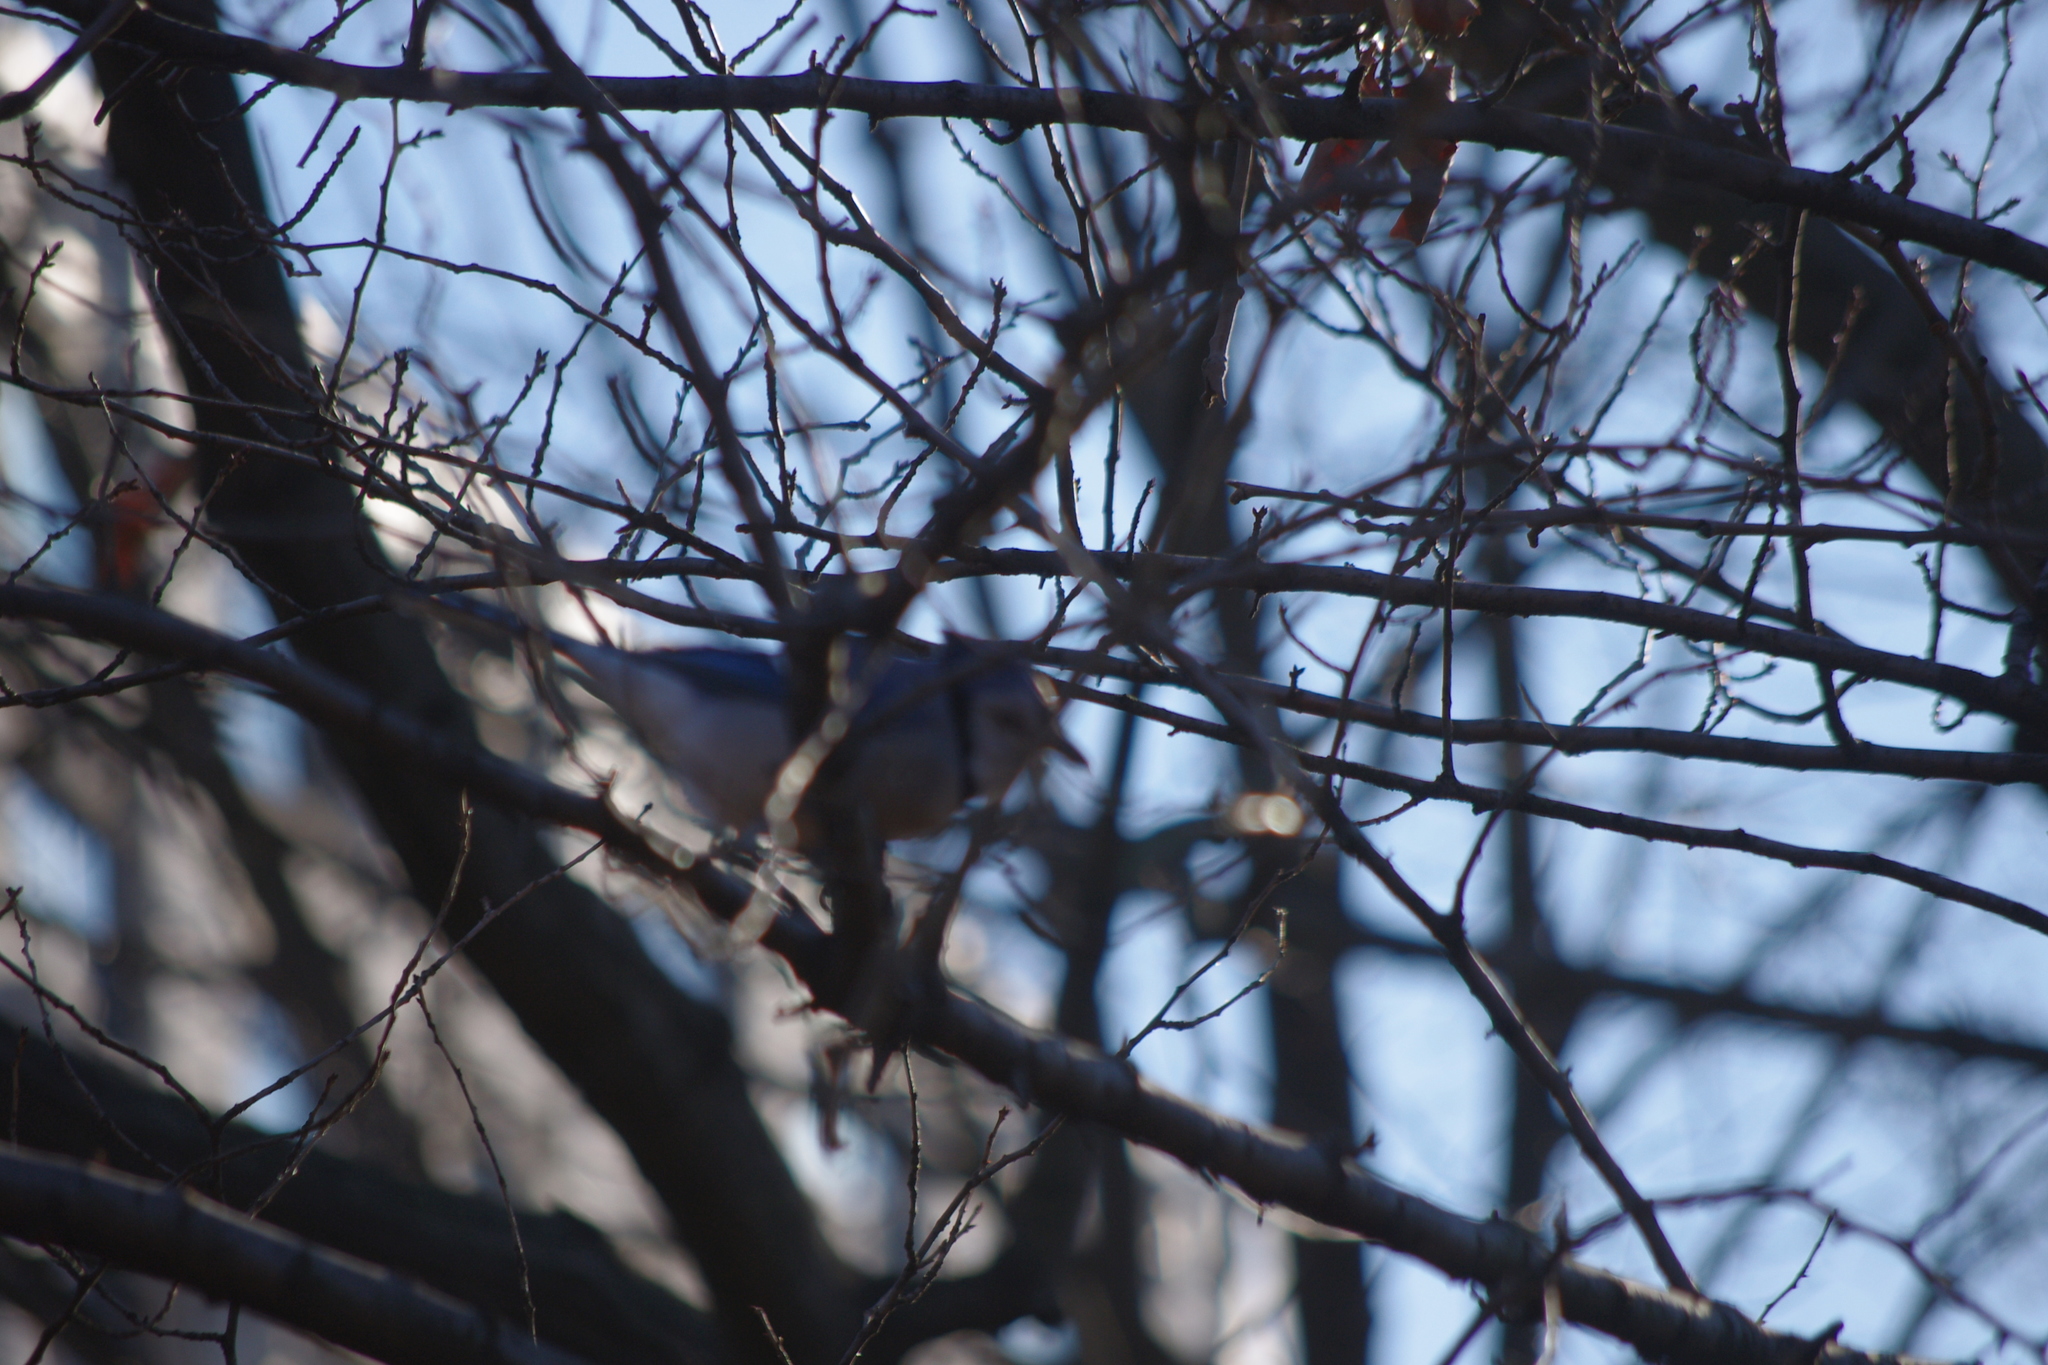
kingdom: Animalia
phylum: Chordata
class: Aves
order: Passeriformes
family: Corvidae
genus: Cyanocitta
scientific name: Cyanocitta cristata
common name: Blue jay
